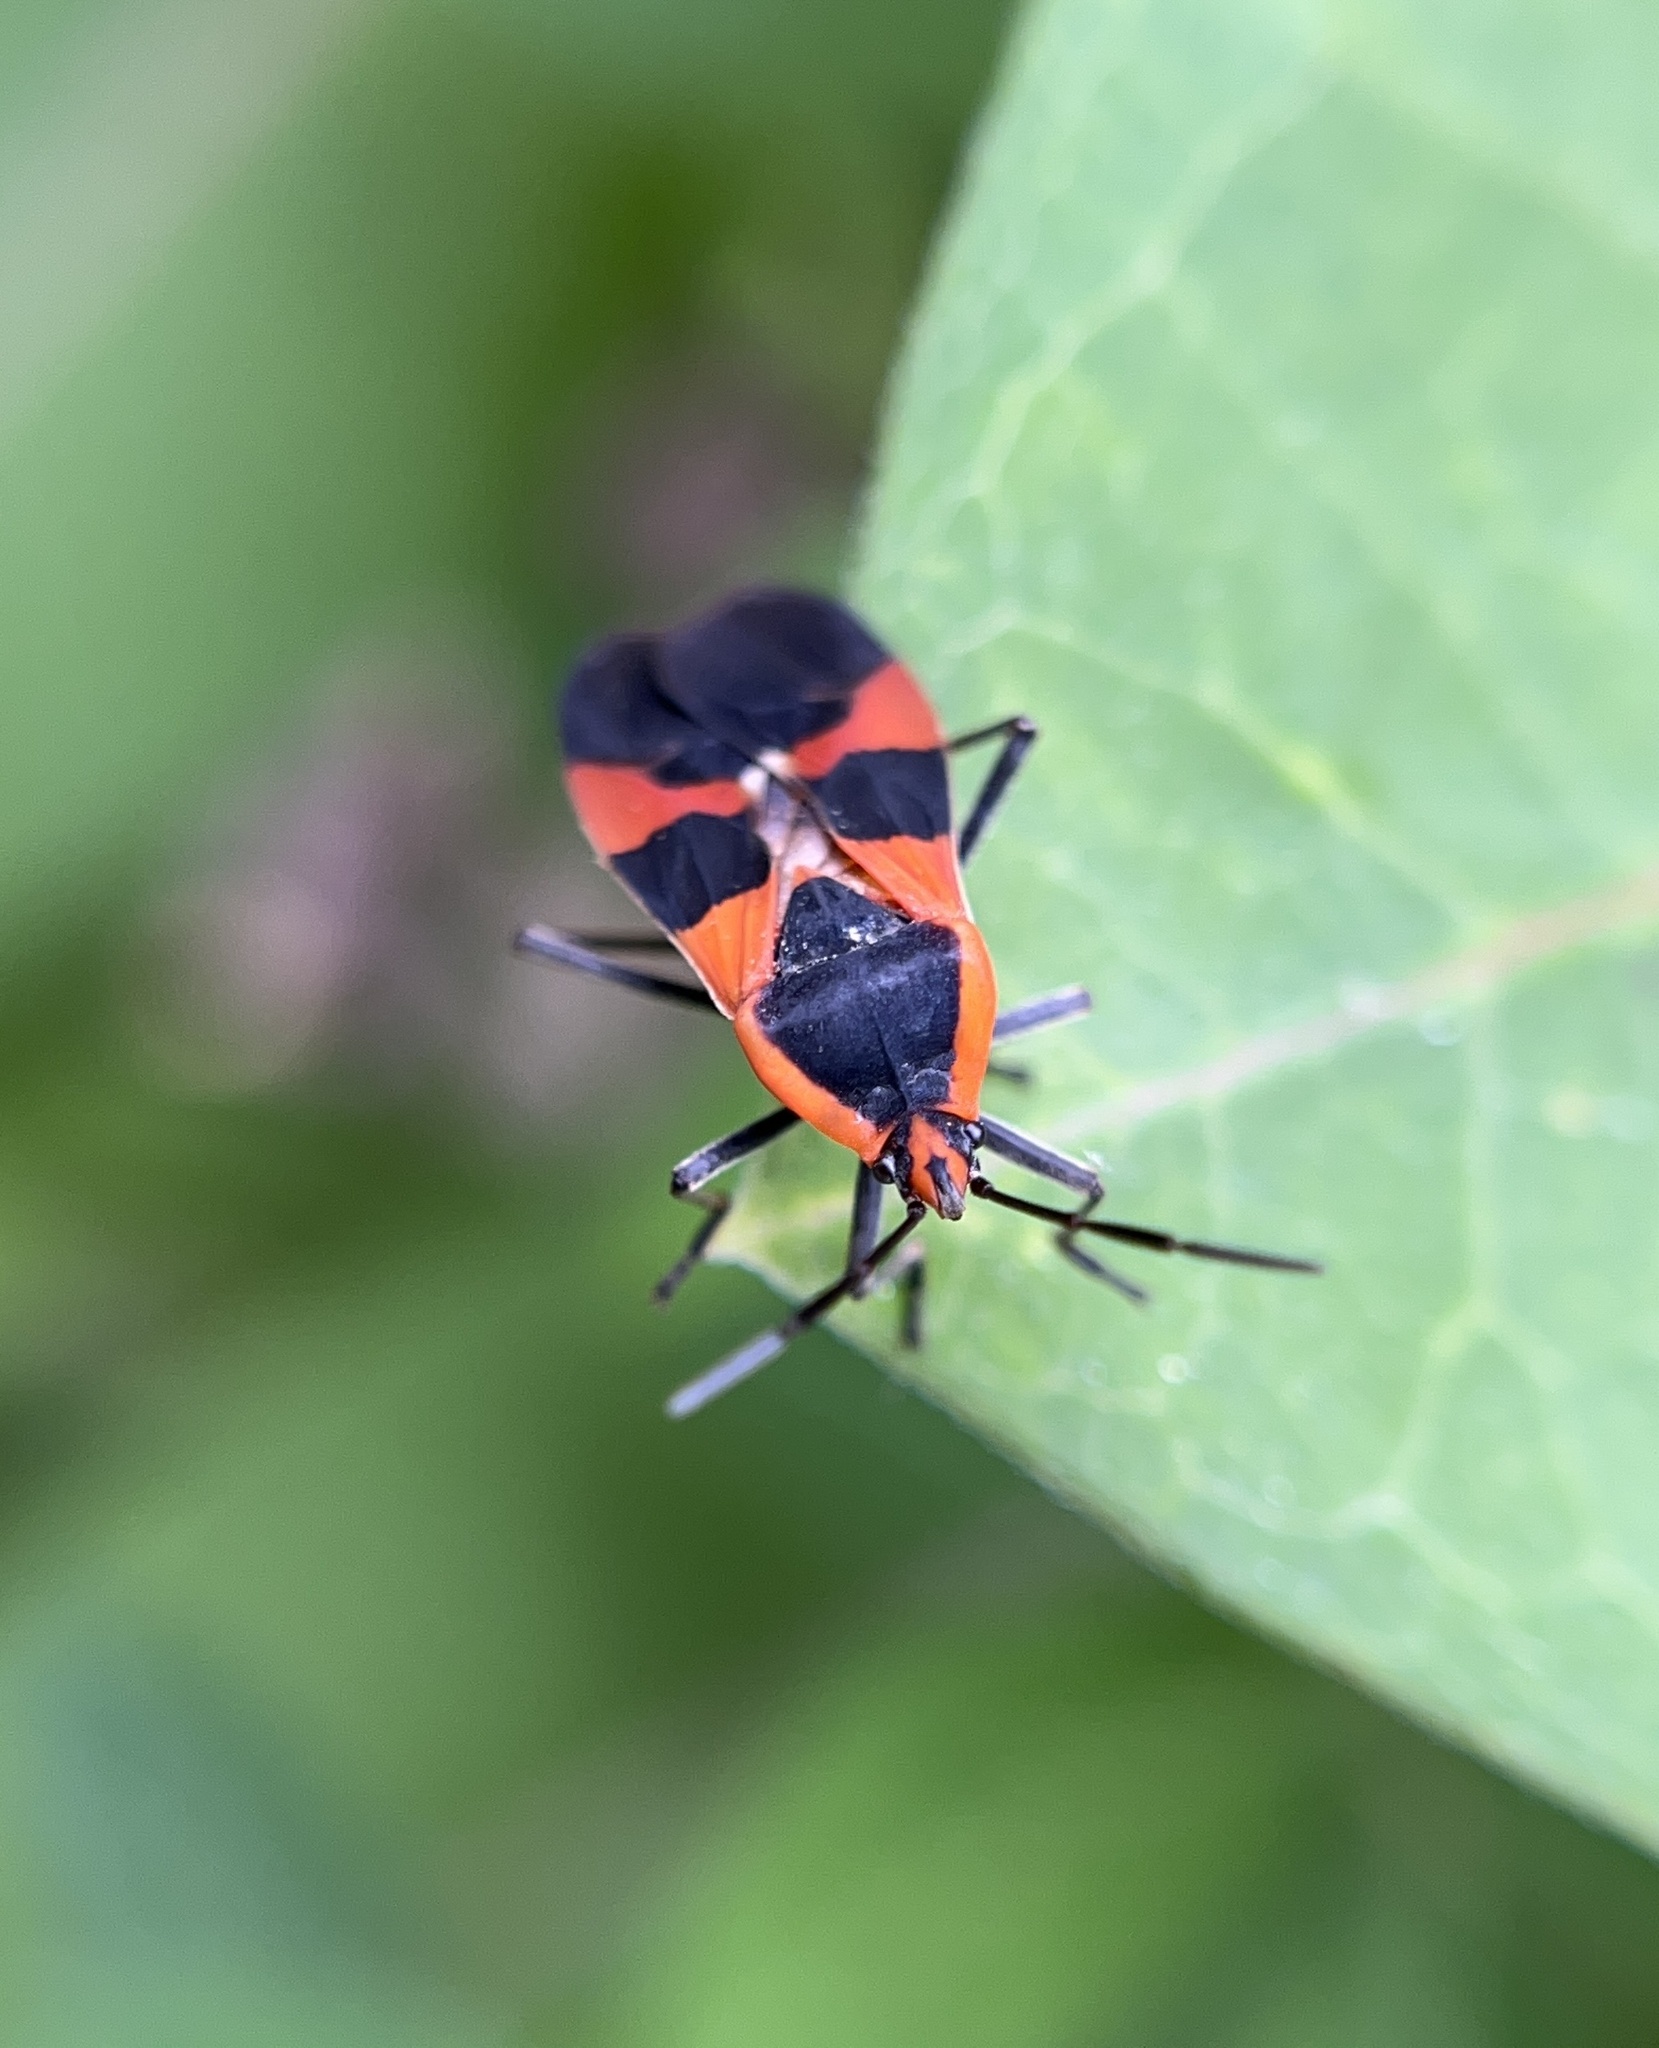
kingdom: Animalia
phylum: Arthropoda
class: Insecta
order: Hemiptera
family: Lygaeidae
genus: Oncopeltus
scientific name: Oncopeltus fasciatus
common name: Large milkweed bug
